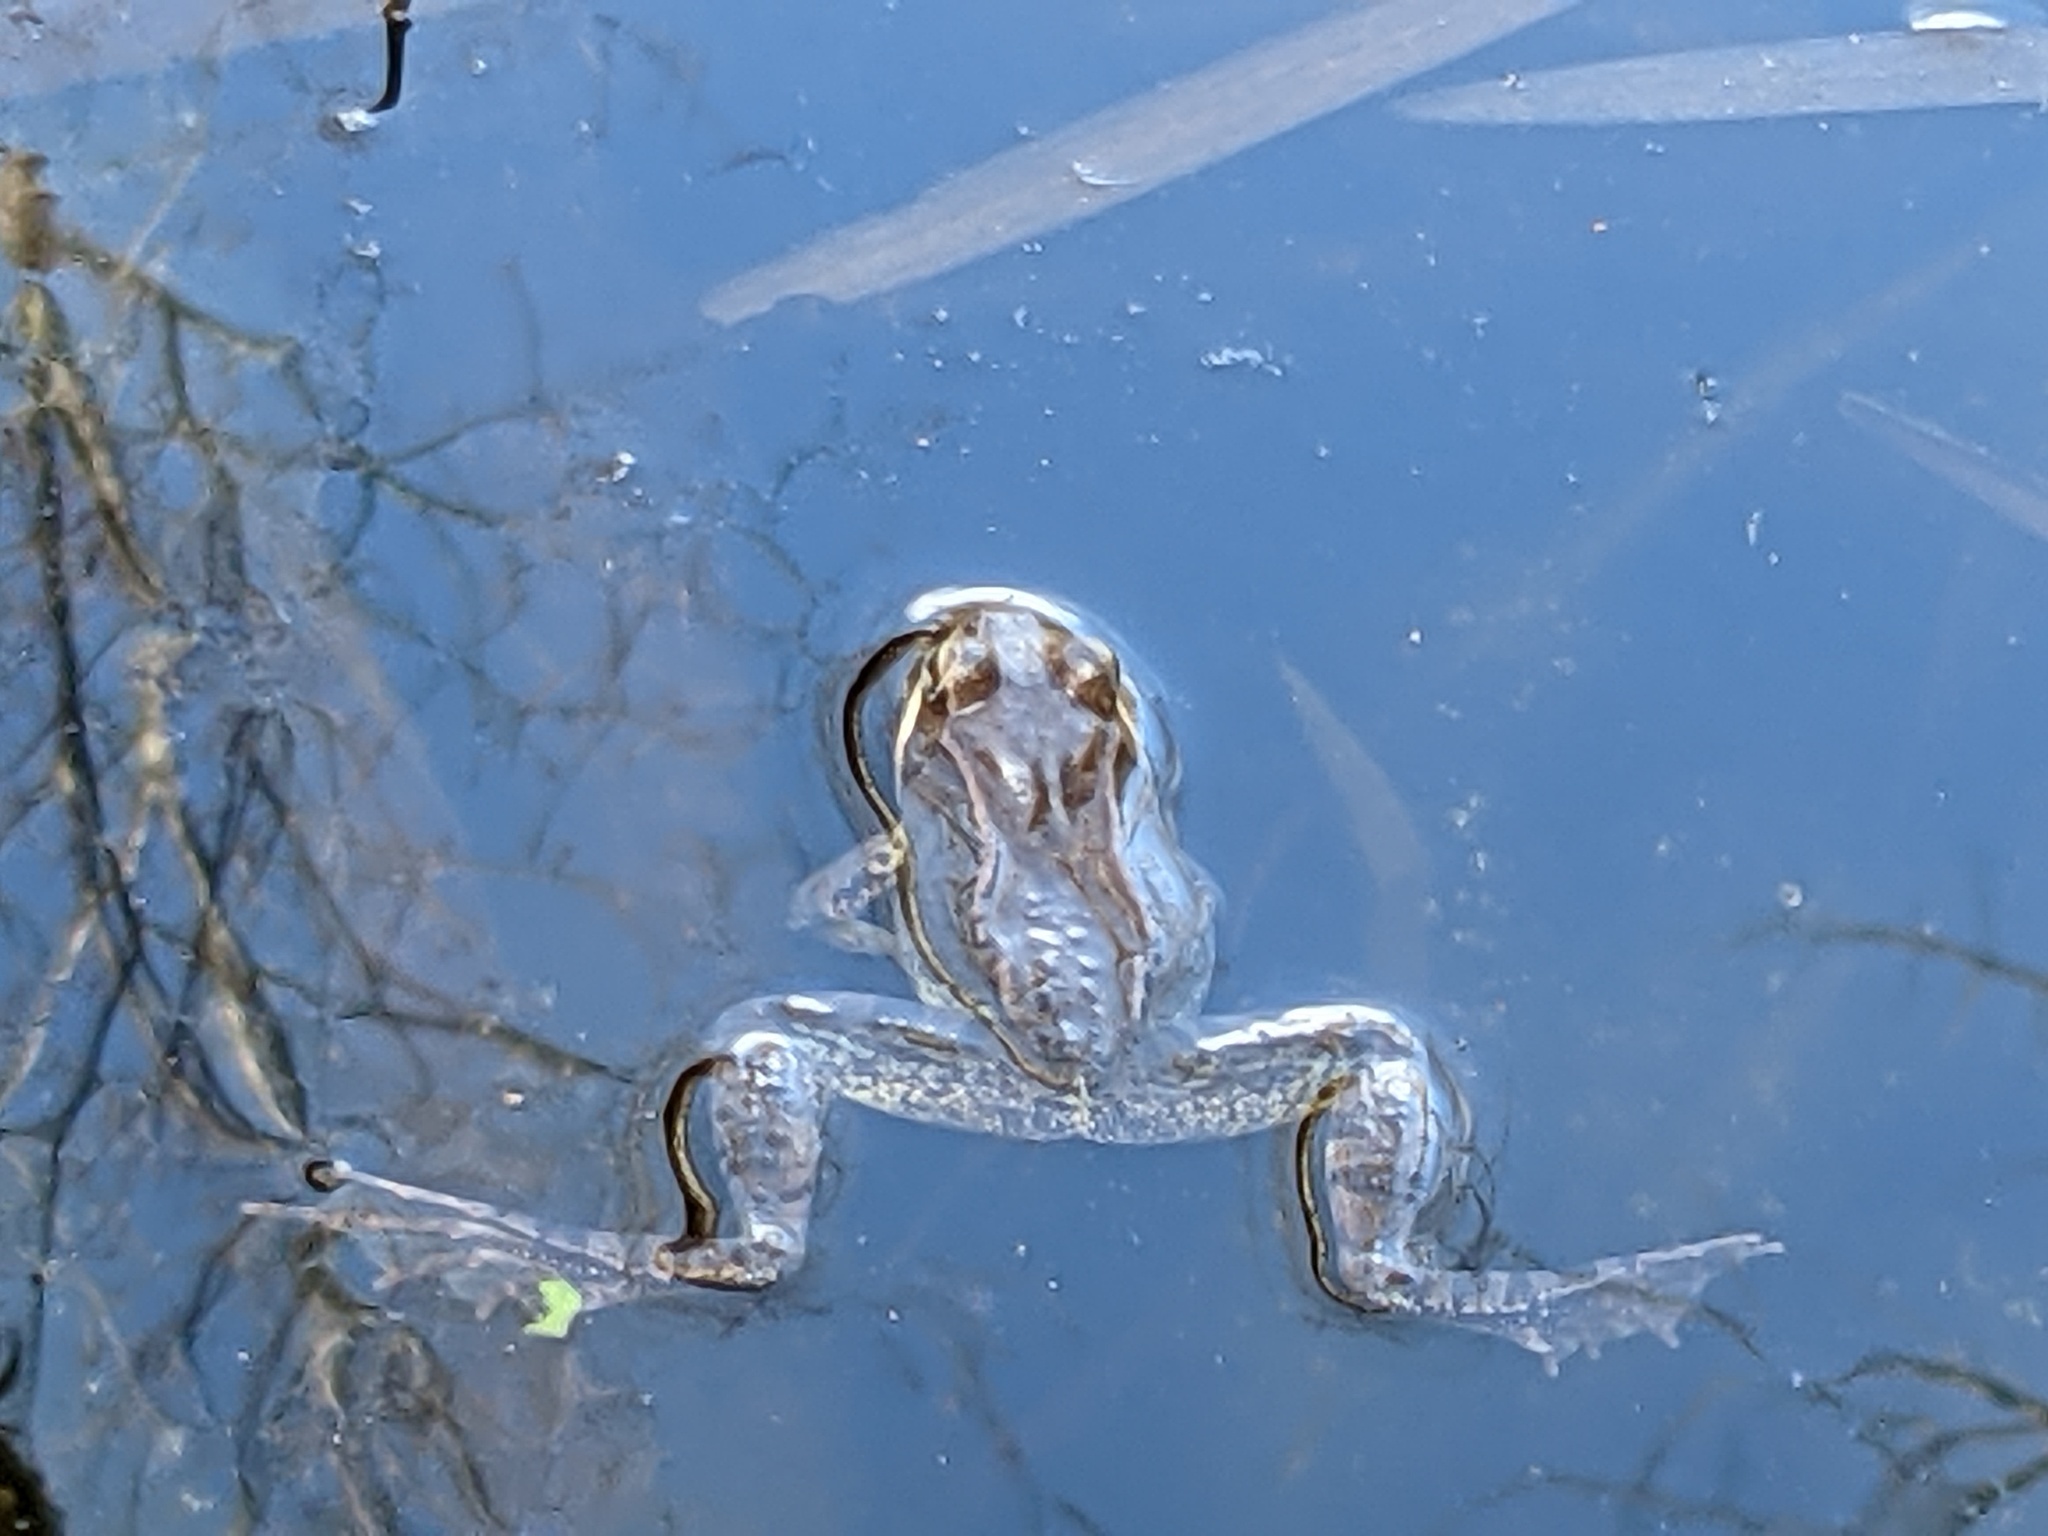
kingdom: Animalia
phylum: Chordata
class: Amphibia
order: Anura
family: Ranidae
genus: Lithobates
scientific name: Lithobates sylvaticus
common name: Wood frog
